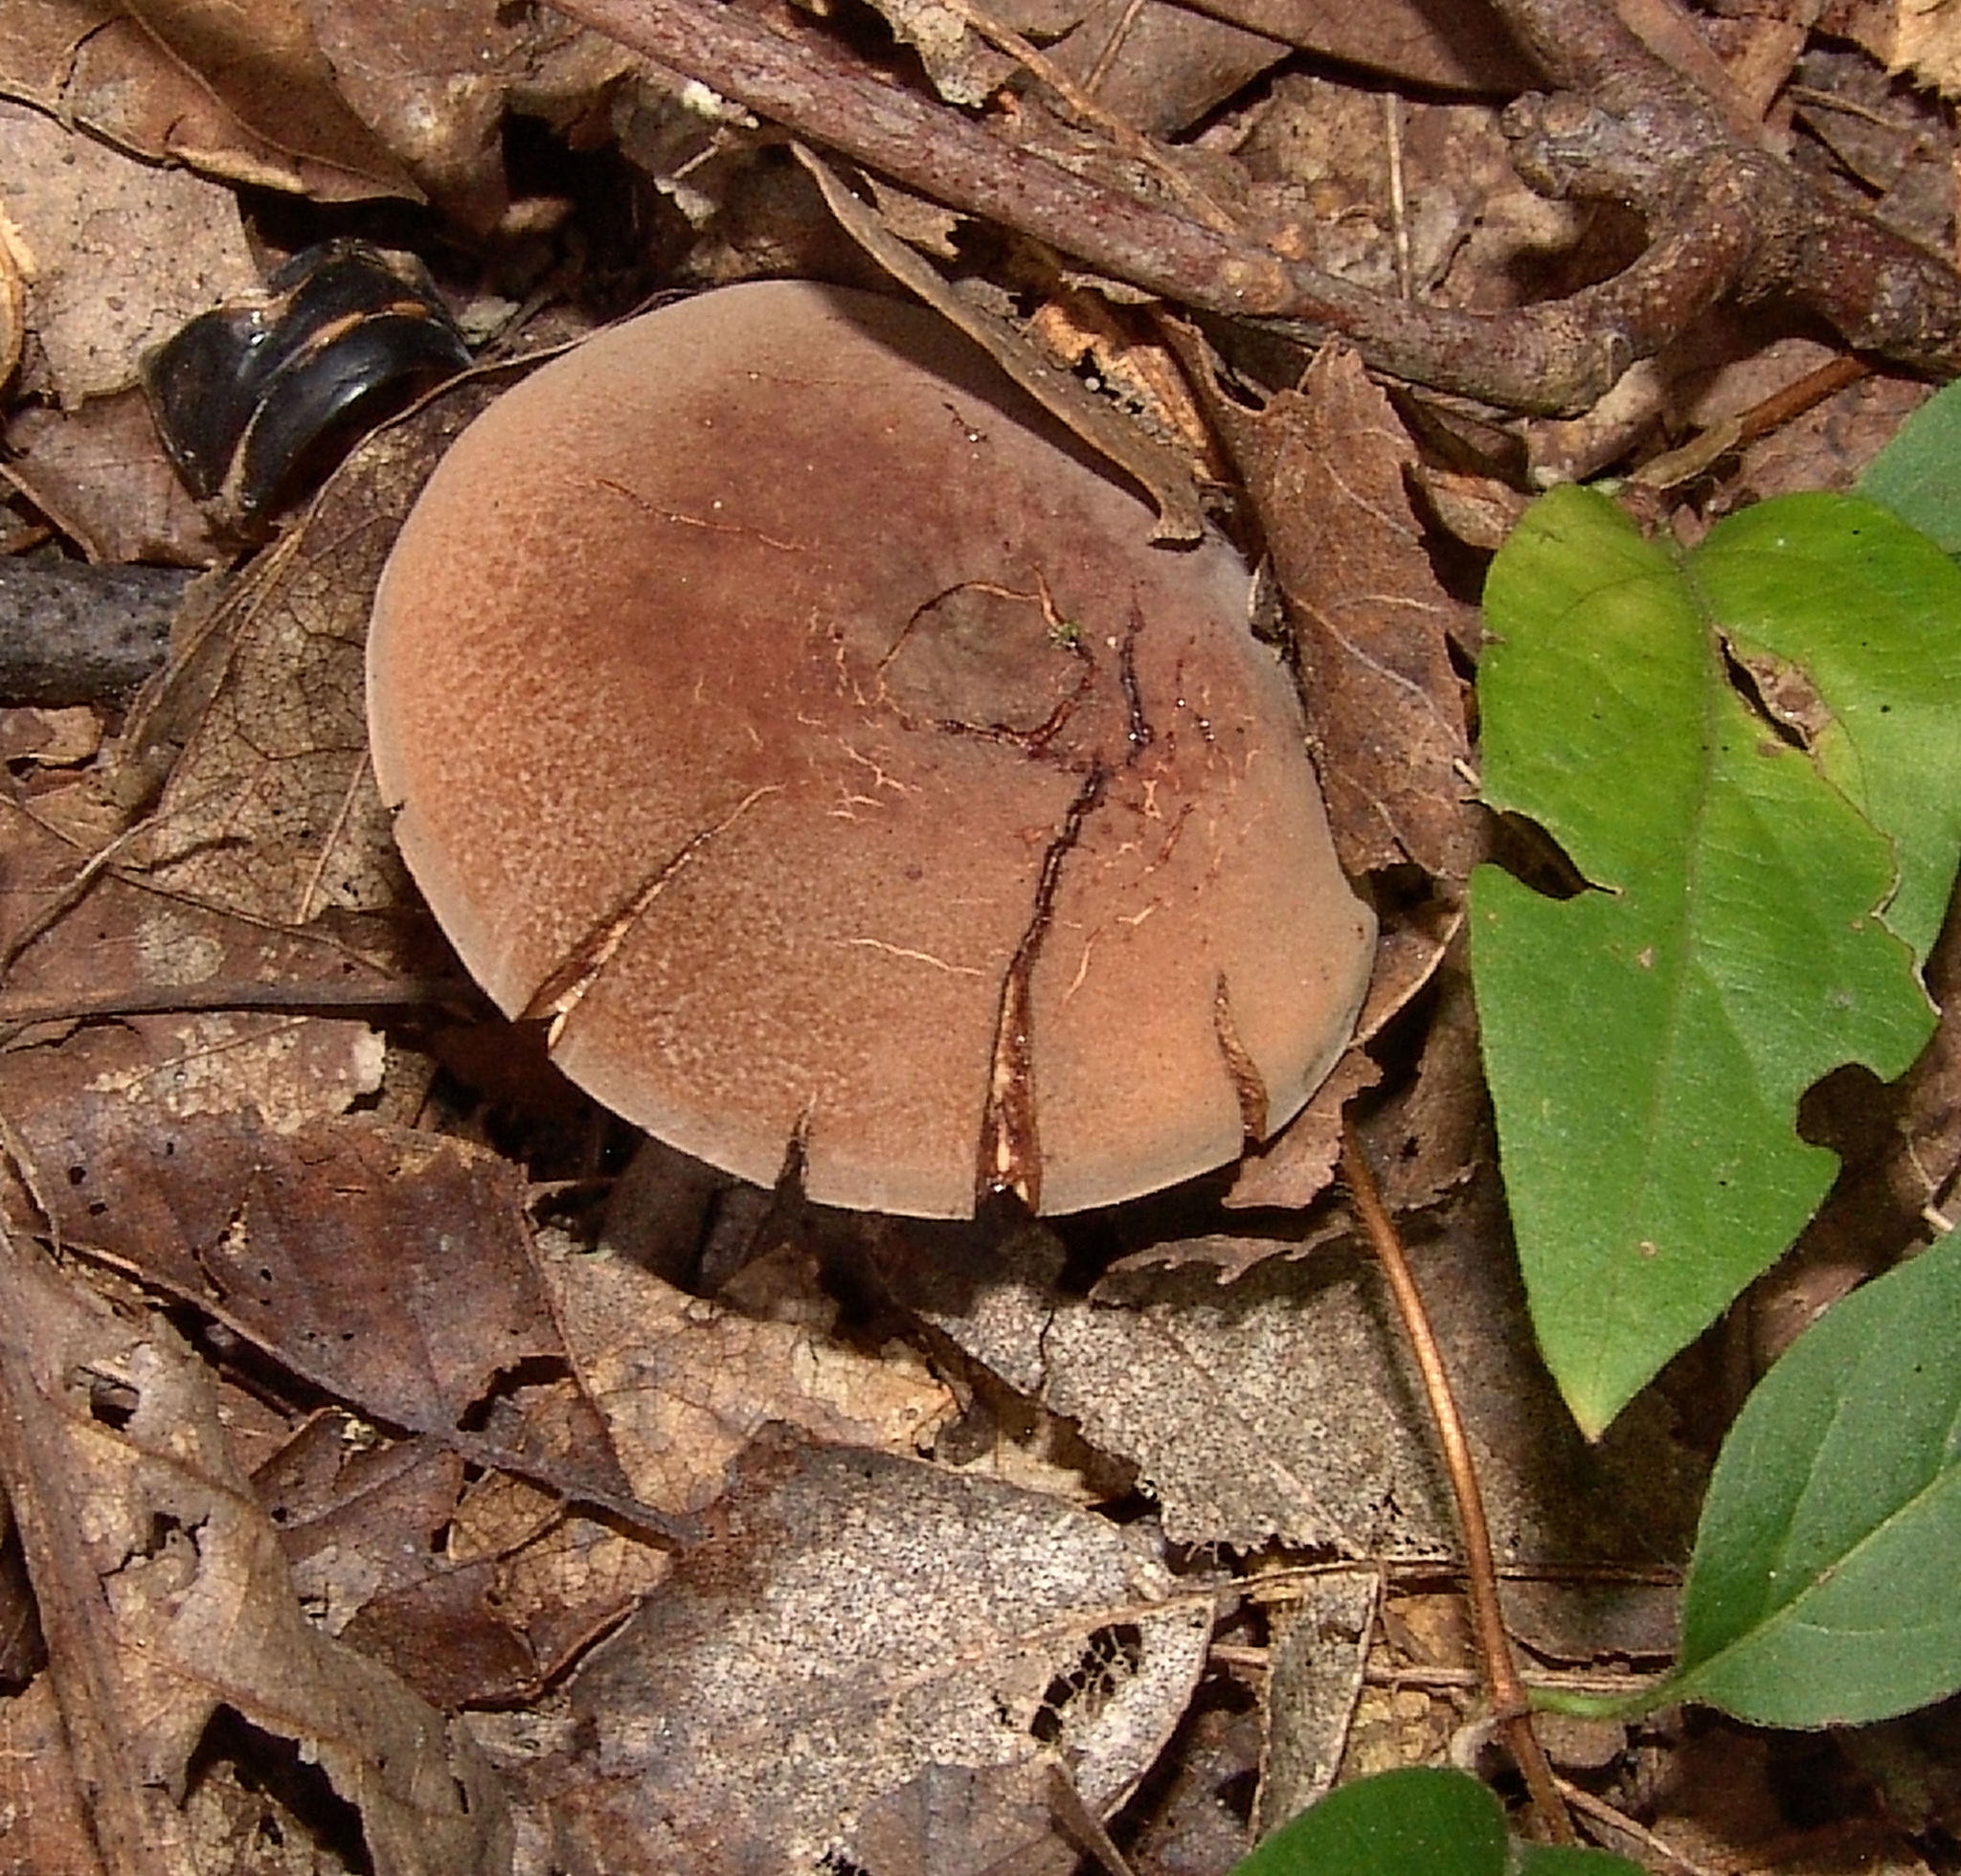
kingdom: Fungi
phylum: Basidiomycota
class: Agaricomycetes
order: Russulales
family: Russulaceae
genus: Lactarius
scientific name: Lactarius corrugis
